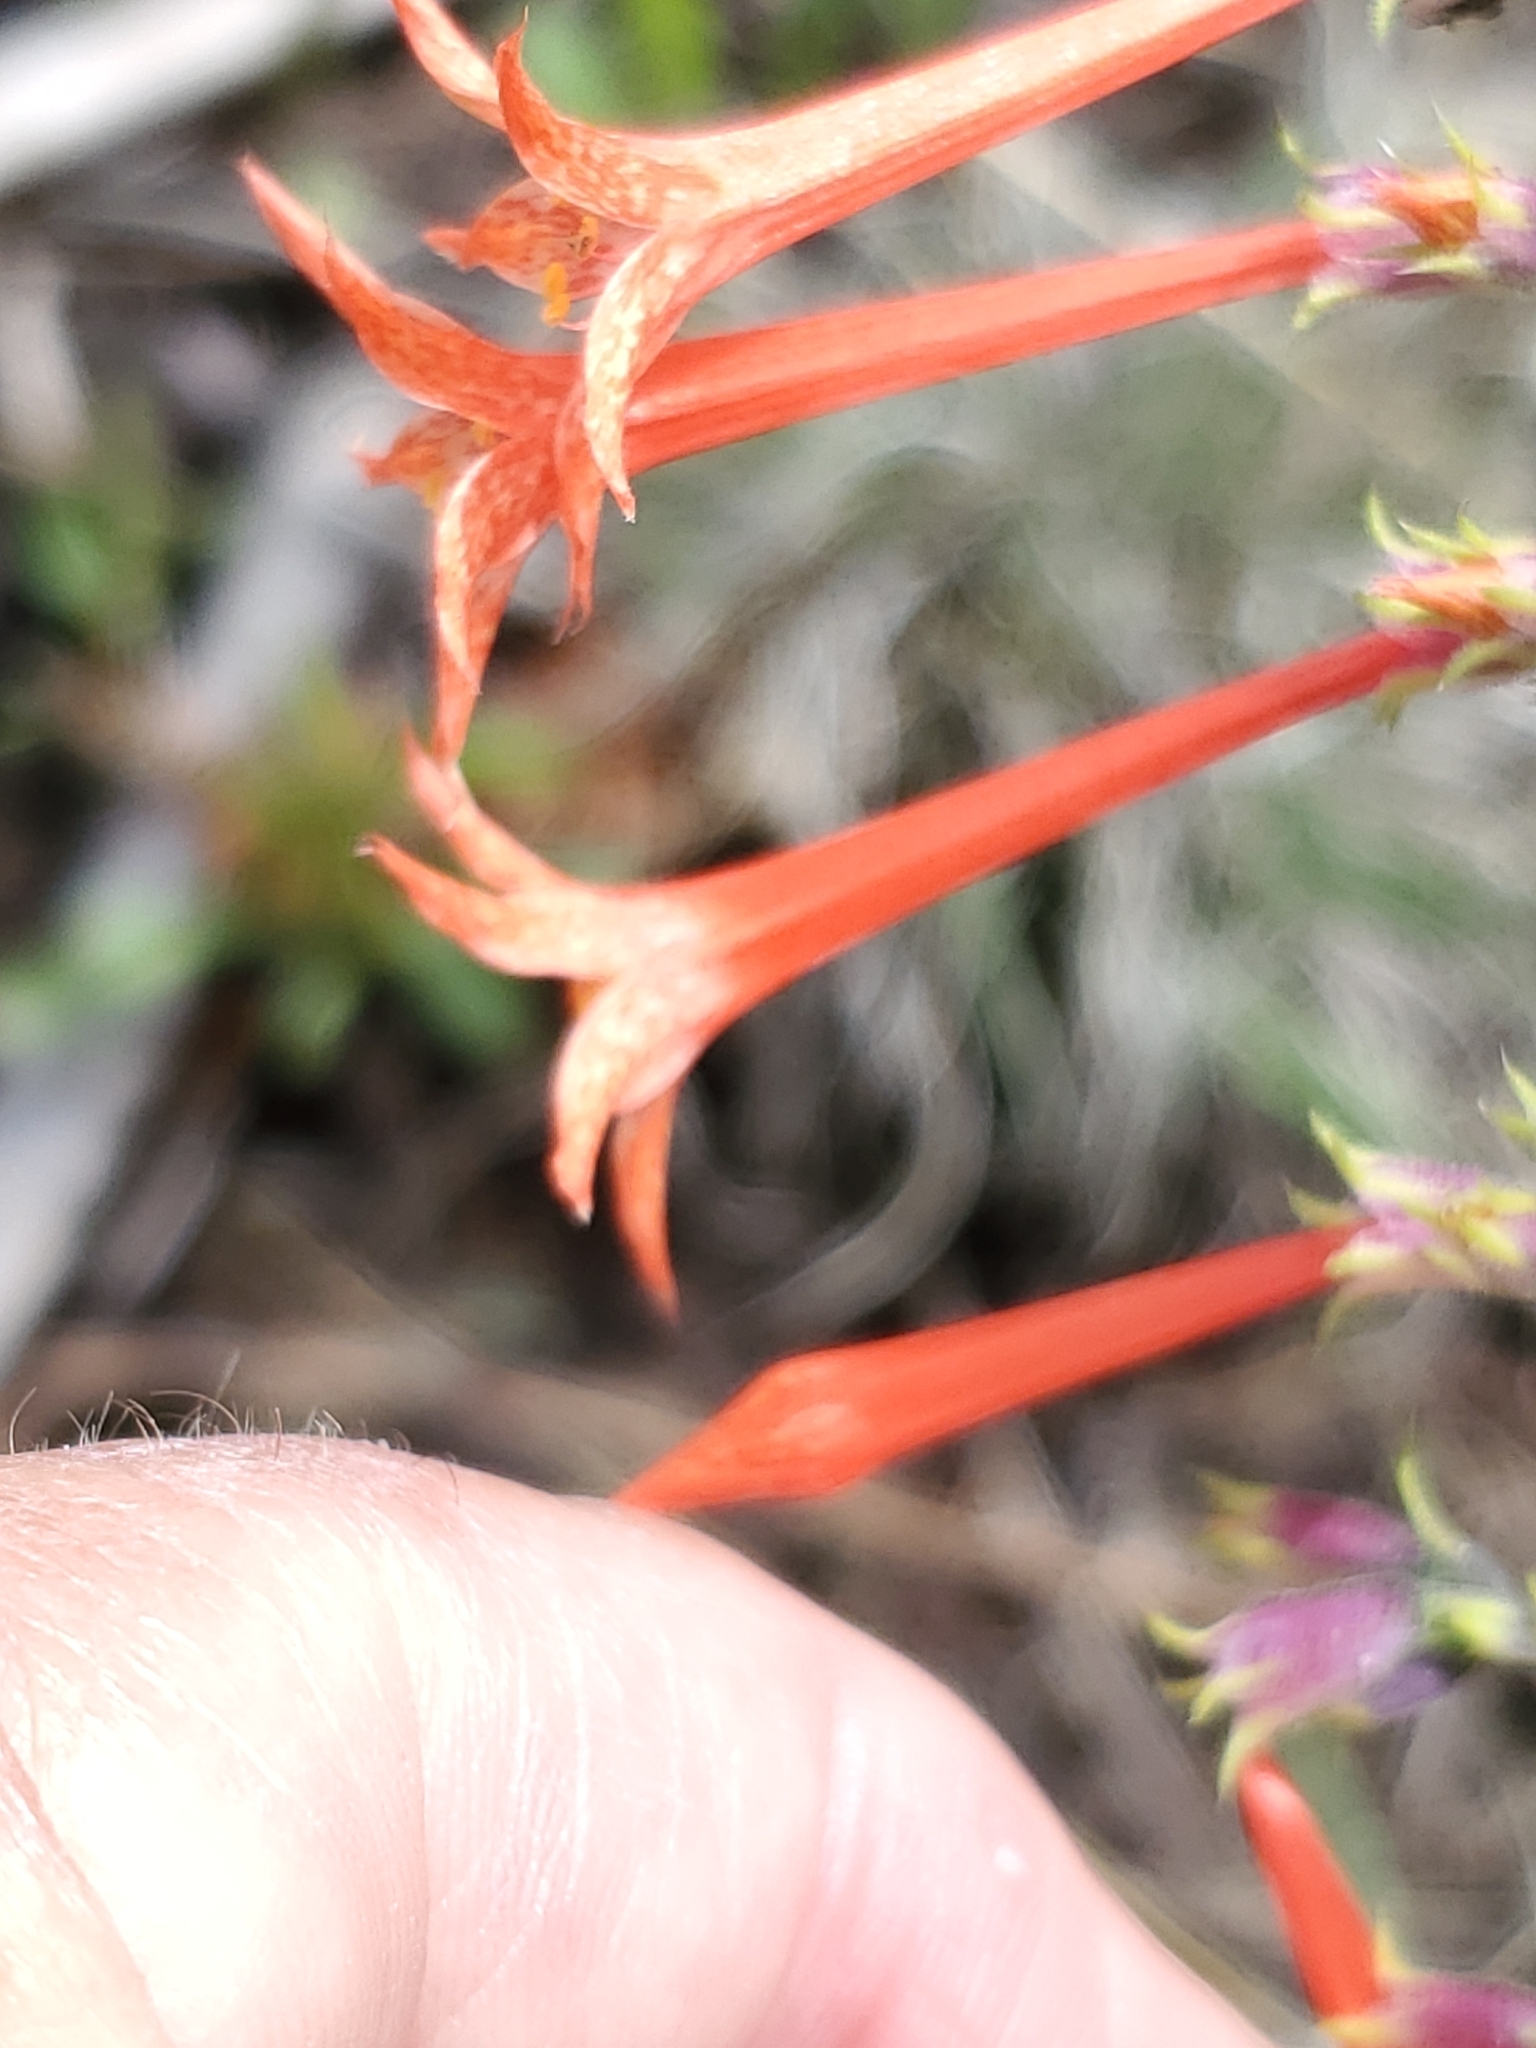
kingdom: Plantae
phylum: Tracheophyta
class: Magnoliopsida
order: Ericales
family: Polemoniaceae
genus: Ipomopsis
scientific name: Ipomopsis aggregata
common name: Scarlet gilia
